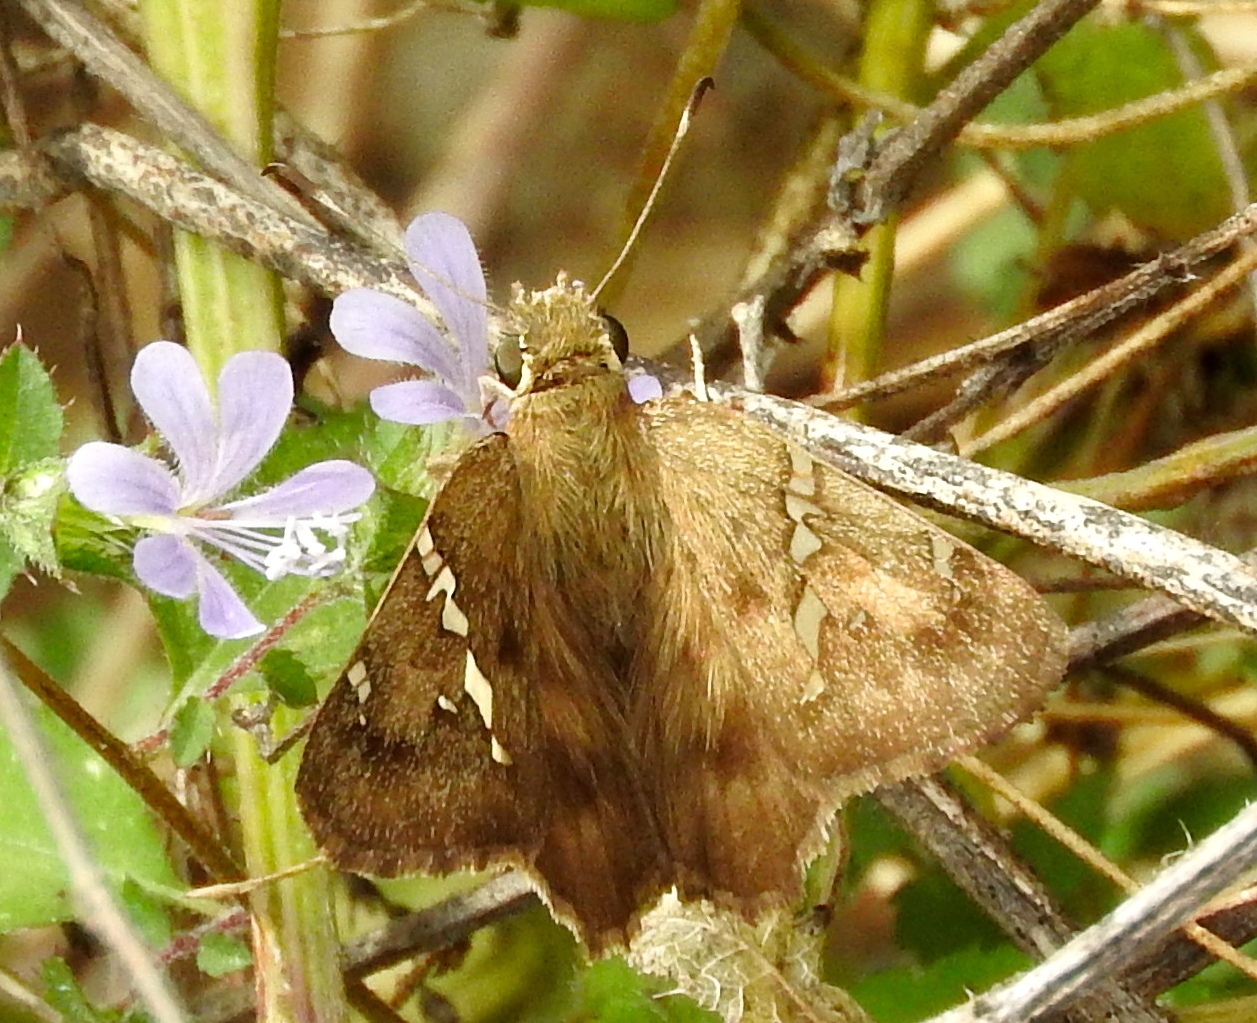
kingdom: Animalia
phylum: Arthropoda
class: Insecta
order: Lepidoptera
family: Hesperiidae
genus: Autochton
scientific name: Autochton potrillo
